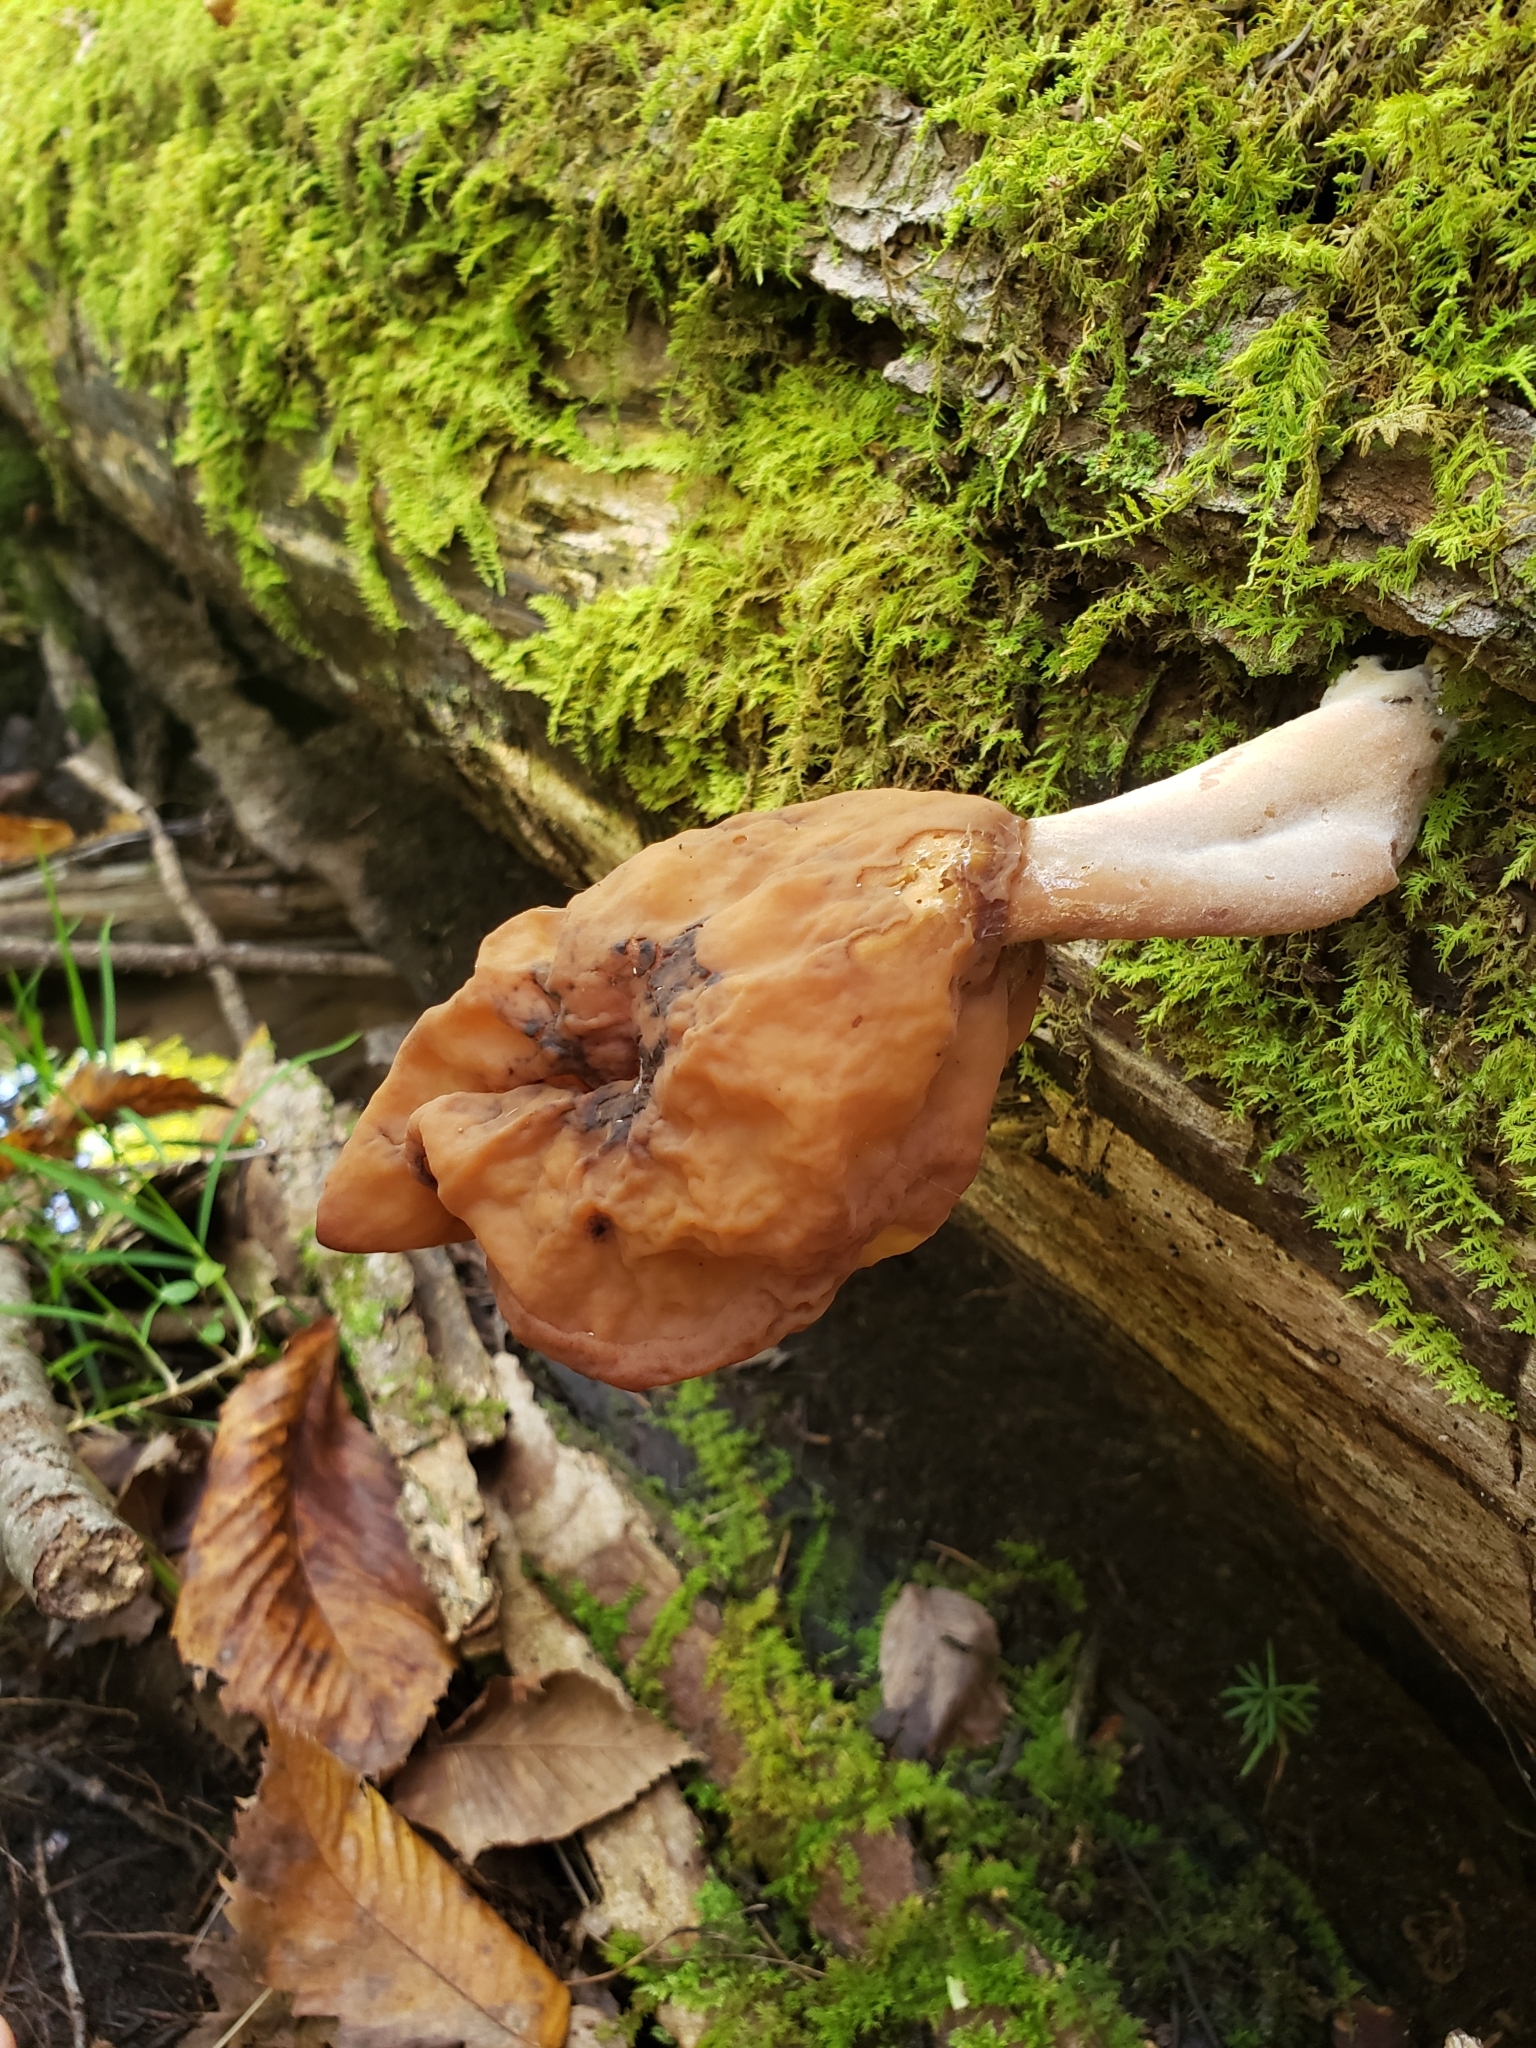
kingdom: Fungi
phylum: Ascomycota
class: Pezizomycetes
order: Pezizales
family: Discinaceae
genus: Gyromitra
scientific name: Gyromitra infula
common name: Pouched false morel
